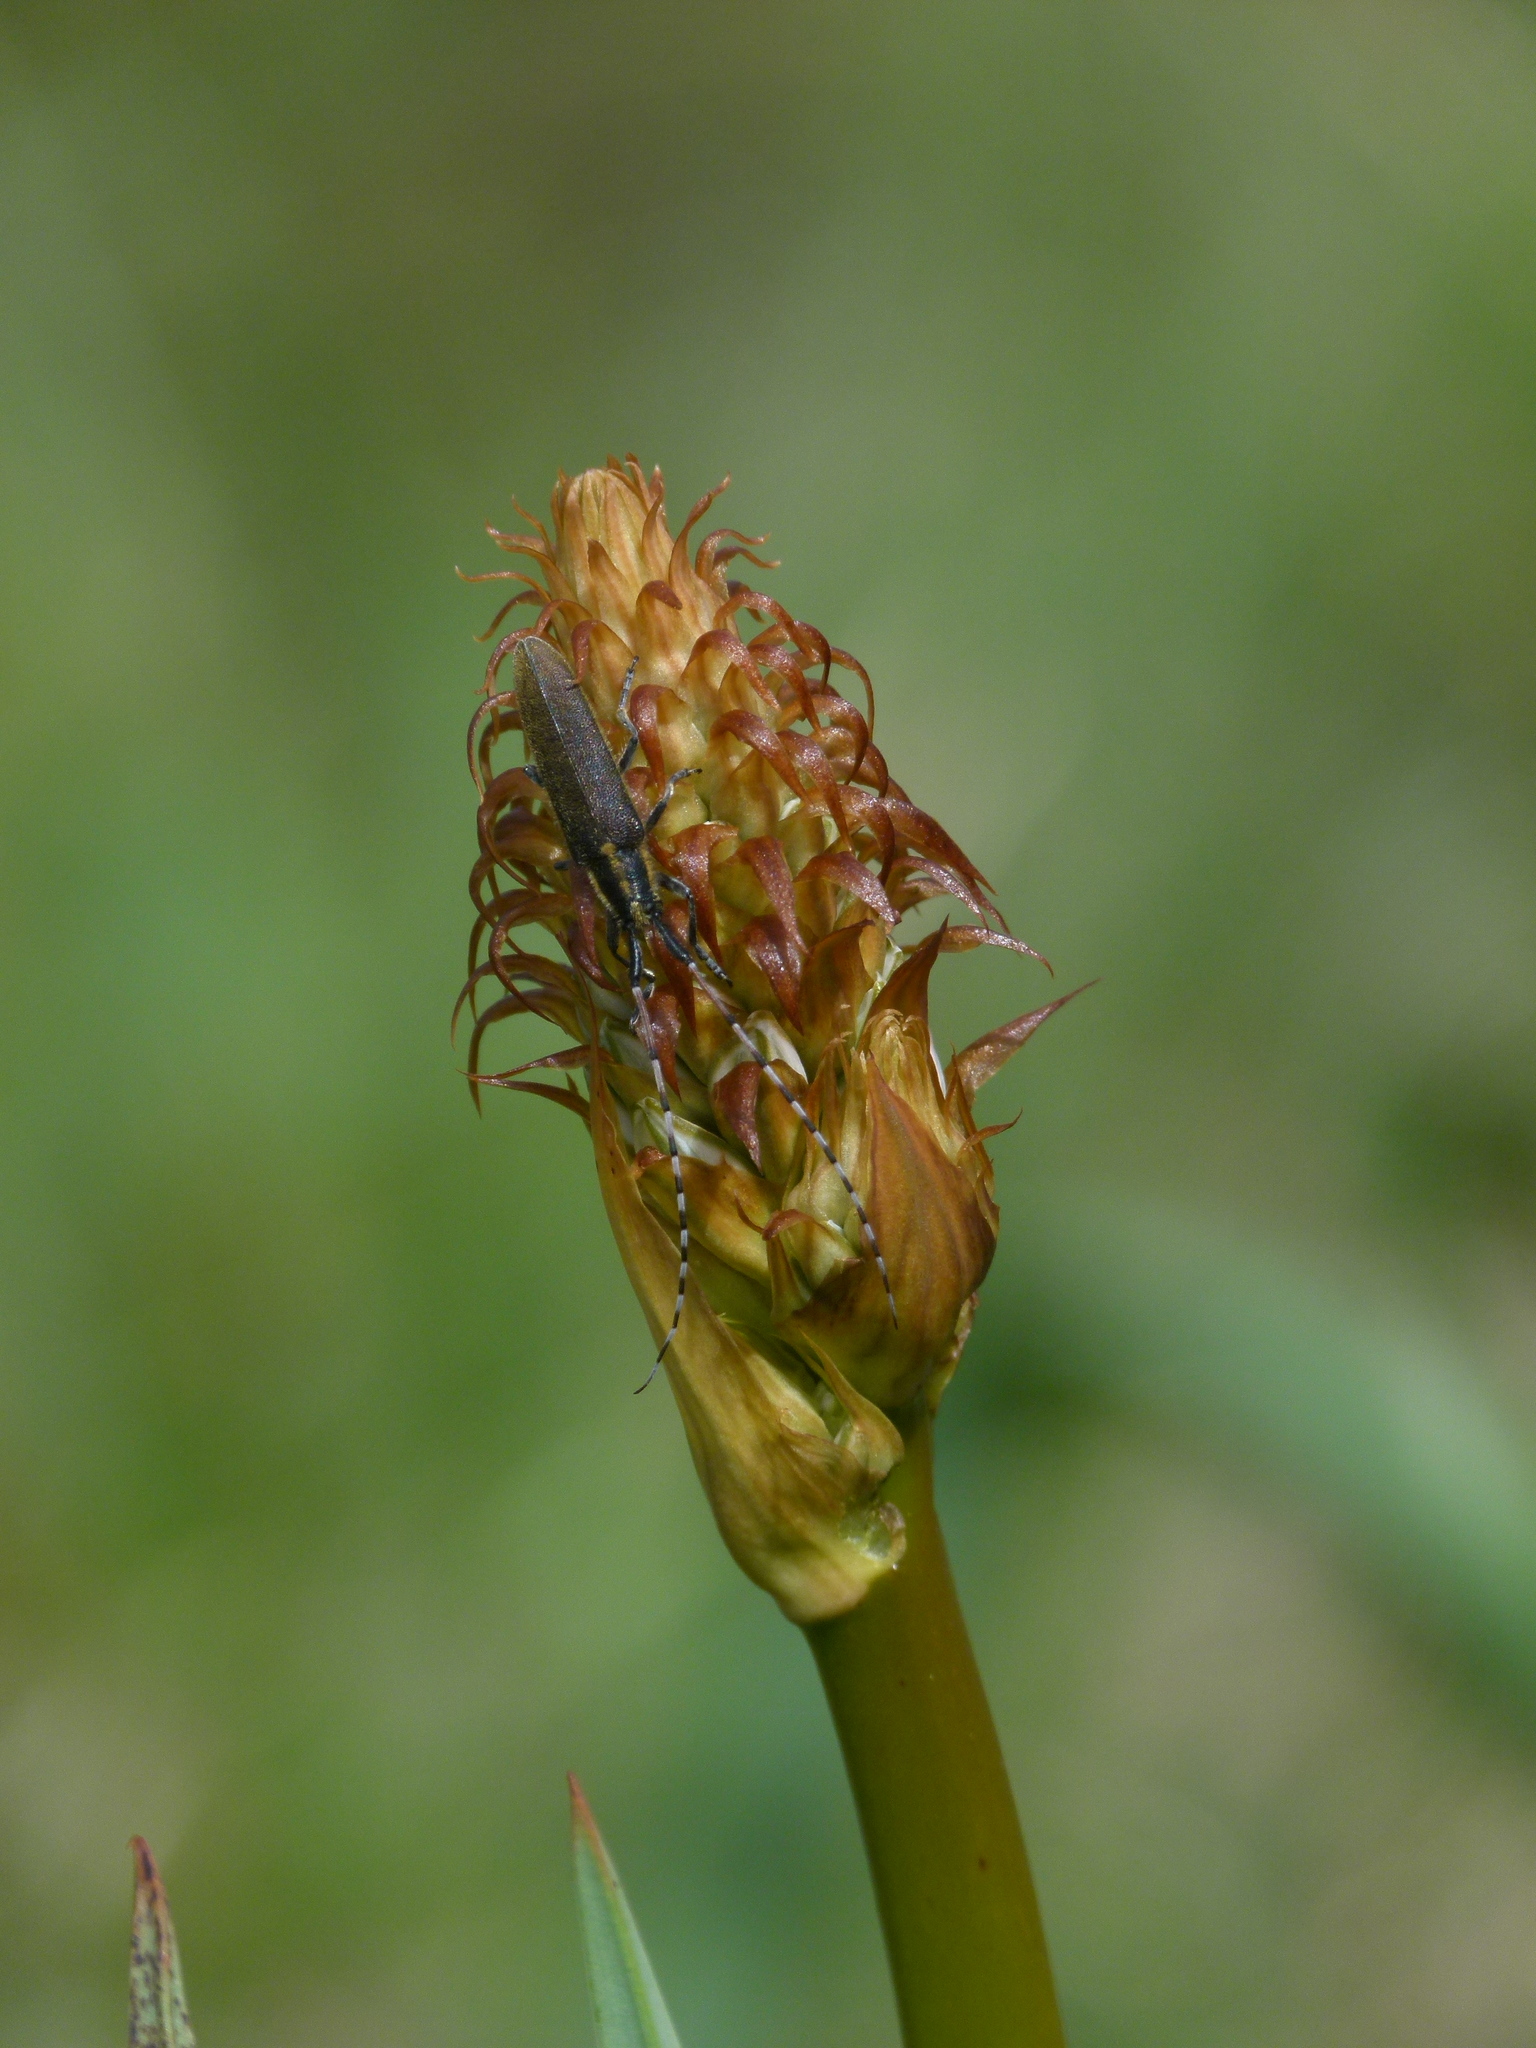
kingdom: Animalia
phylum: Arthropoda
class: Insecta
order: Coleoptera
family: Cerambycidae
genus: Agapanthia
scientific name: Agapanthia asphodeli
